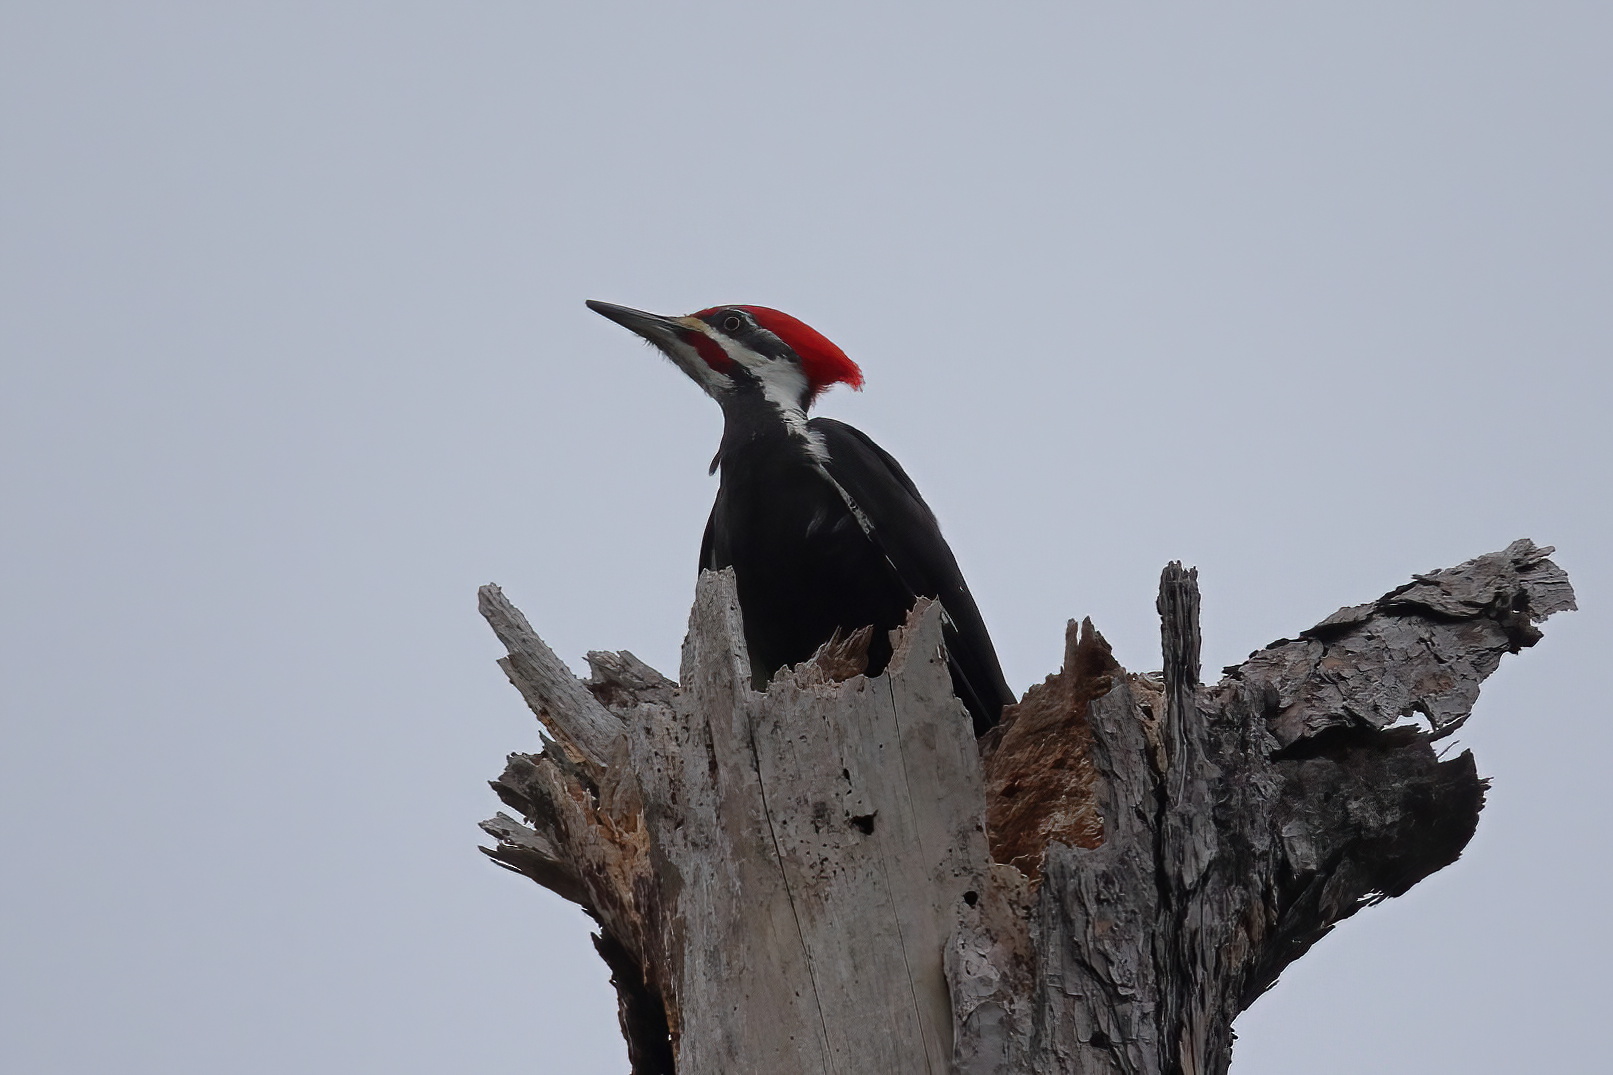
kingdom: Animalia
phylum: Chordata
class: Aves
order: Piciformes
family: Picidae
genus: Dryocopus
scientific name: Dryocopus pileatus
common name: Pileated woodpecker
